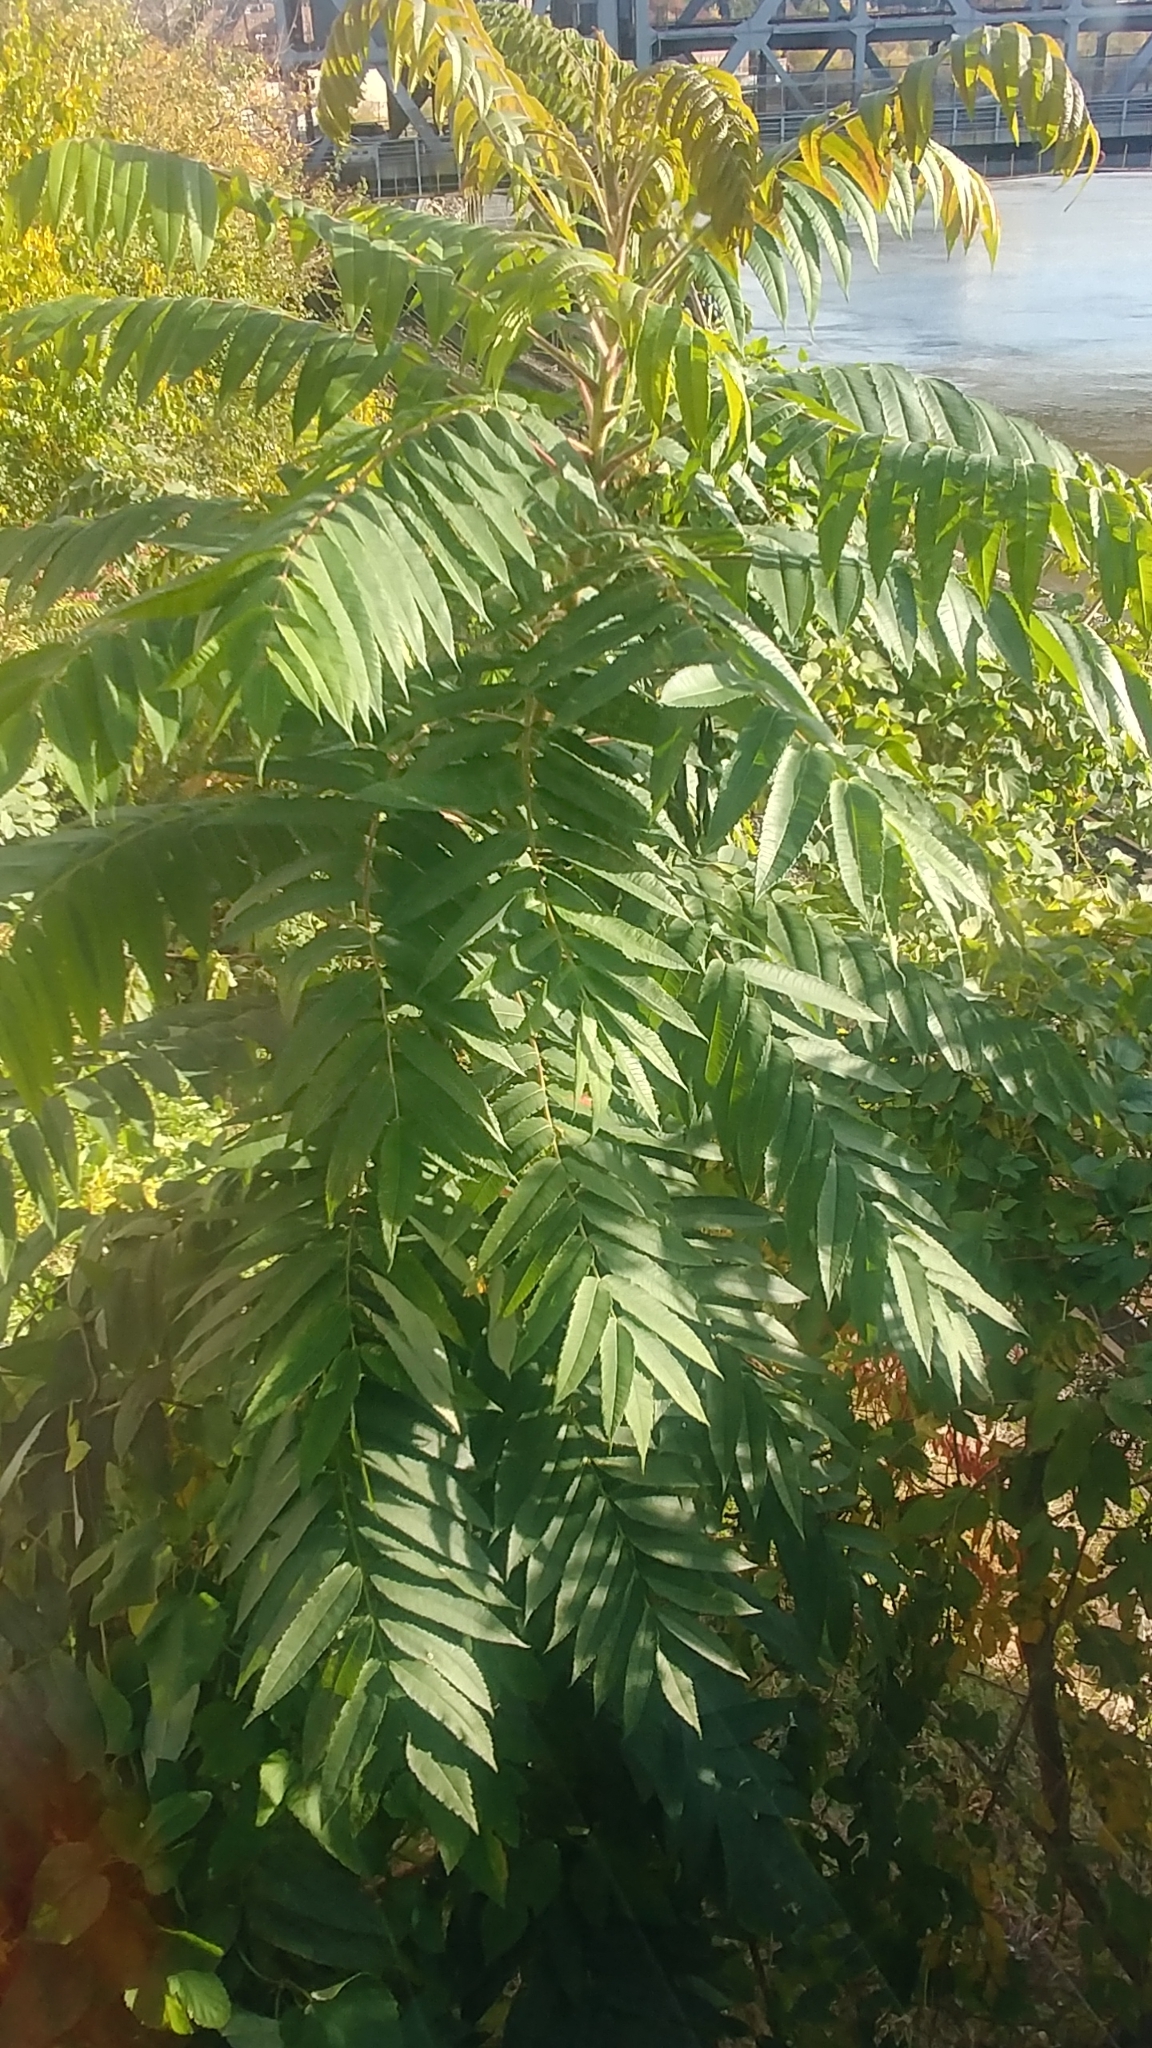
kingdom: Plantae
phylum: Tracheophyta
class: Magnoliopsida
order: Sapindales
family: Anacardiaceae
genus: Rhus
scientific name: Rhus typhina
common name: Staghorn sumac
